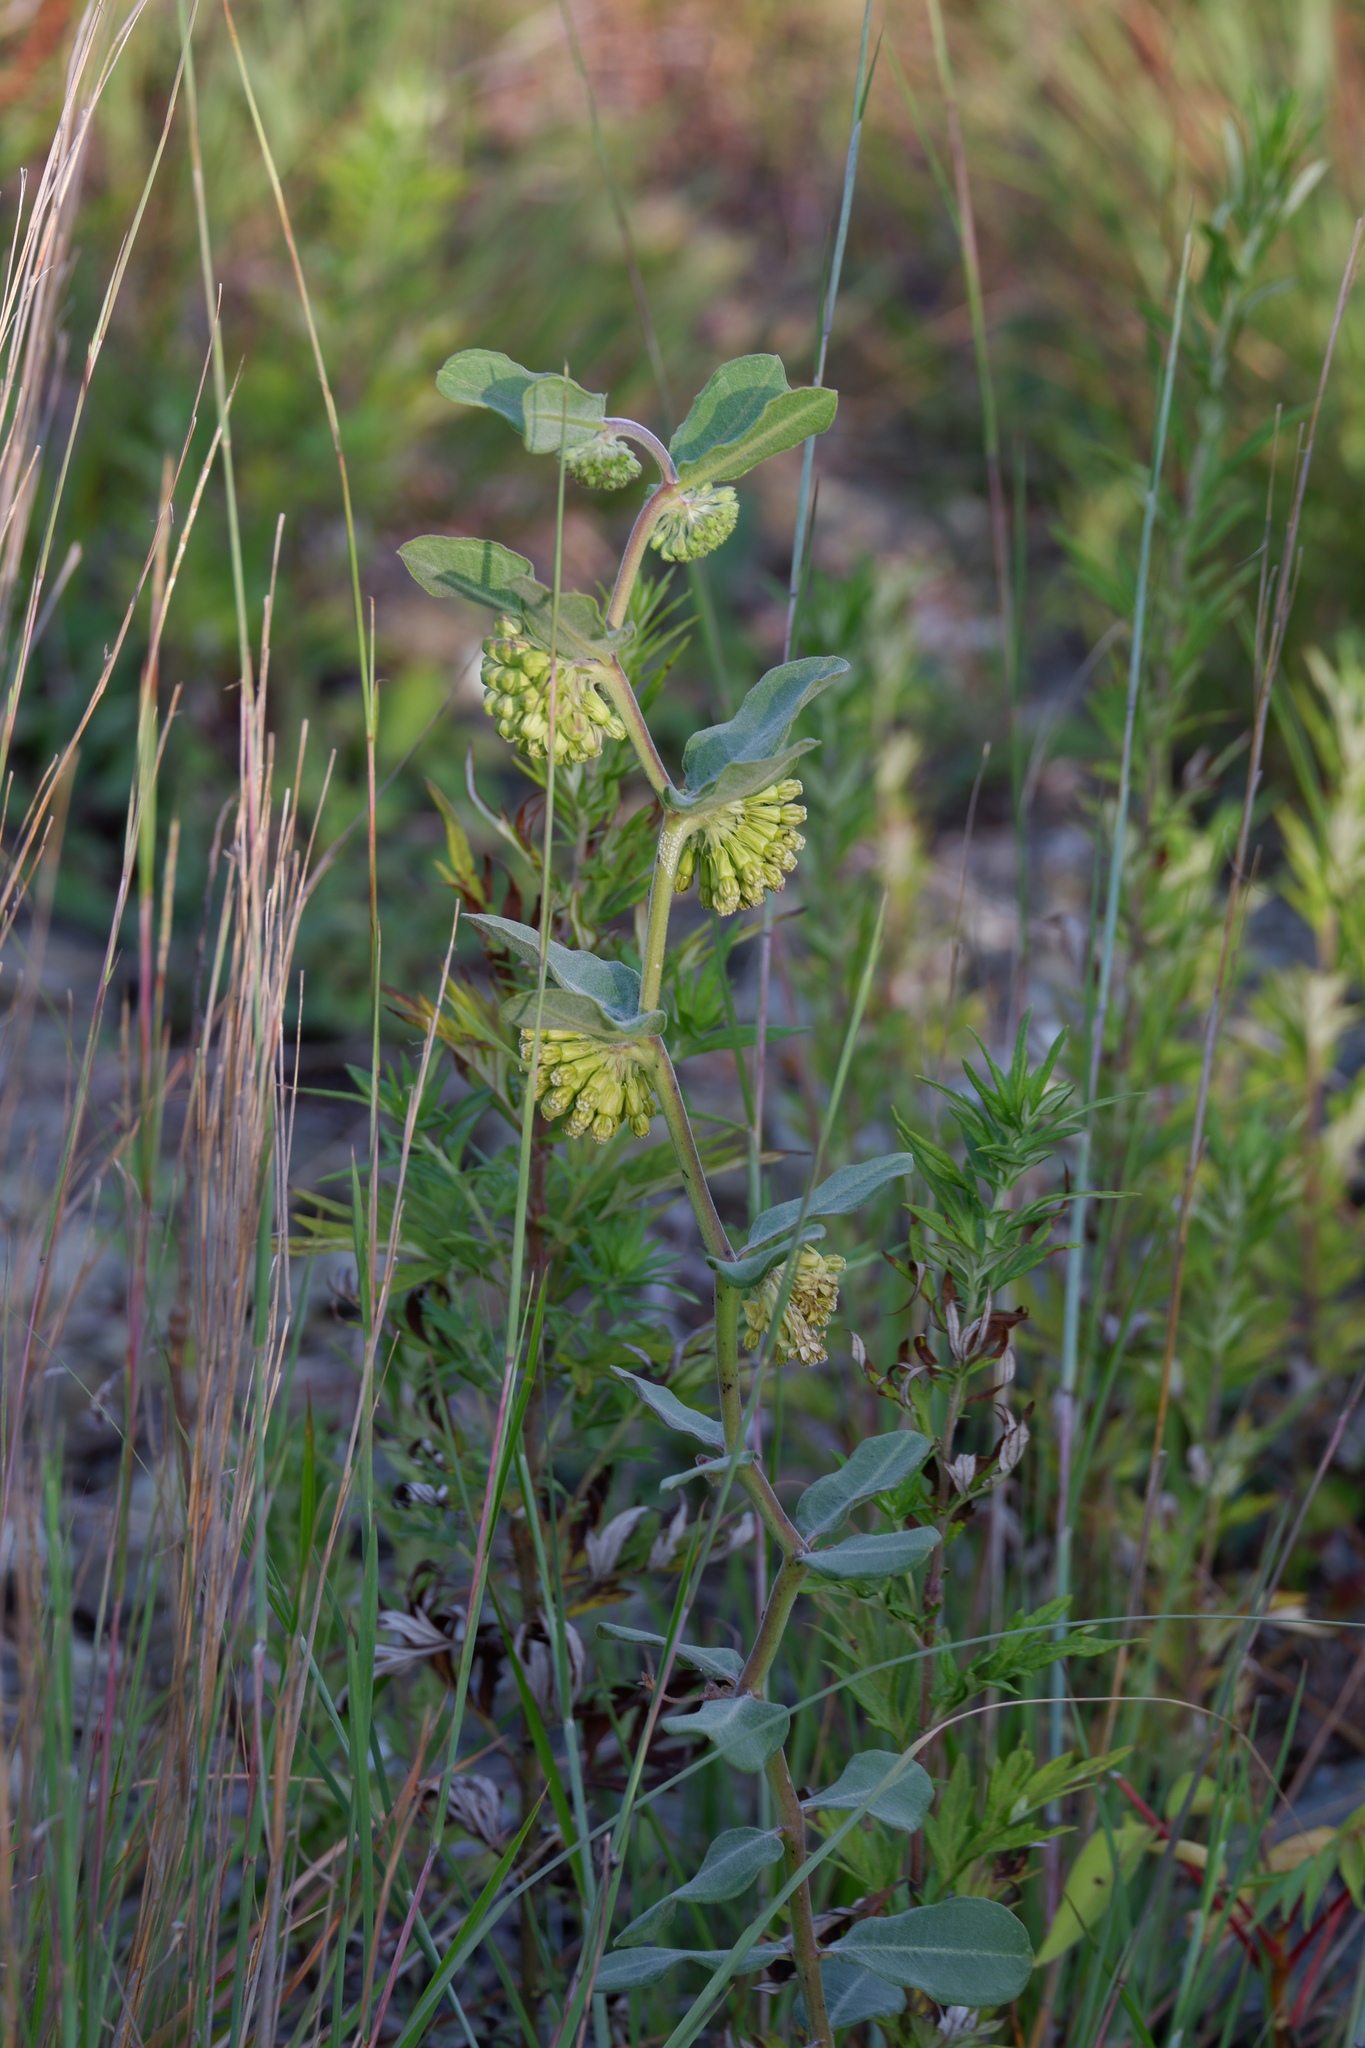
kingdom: Plantae
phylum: Tracheophyta
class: Magnoliopsida
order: Gentianales
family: Apocynaceae
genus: Asclepias
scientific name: Asclepias viridiflora
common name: Green comet milkweed
